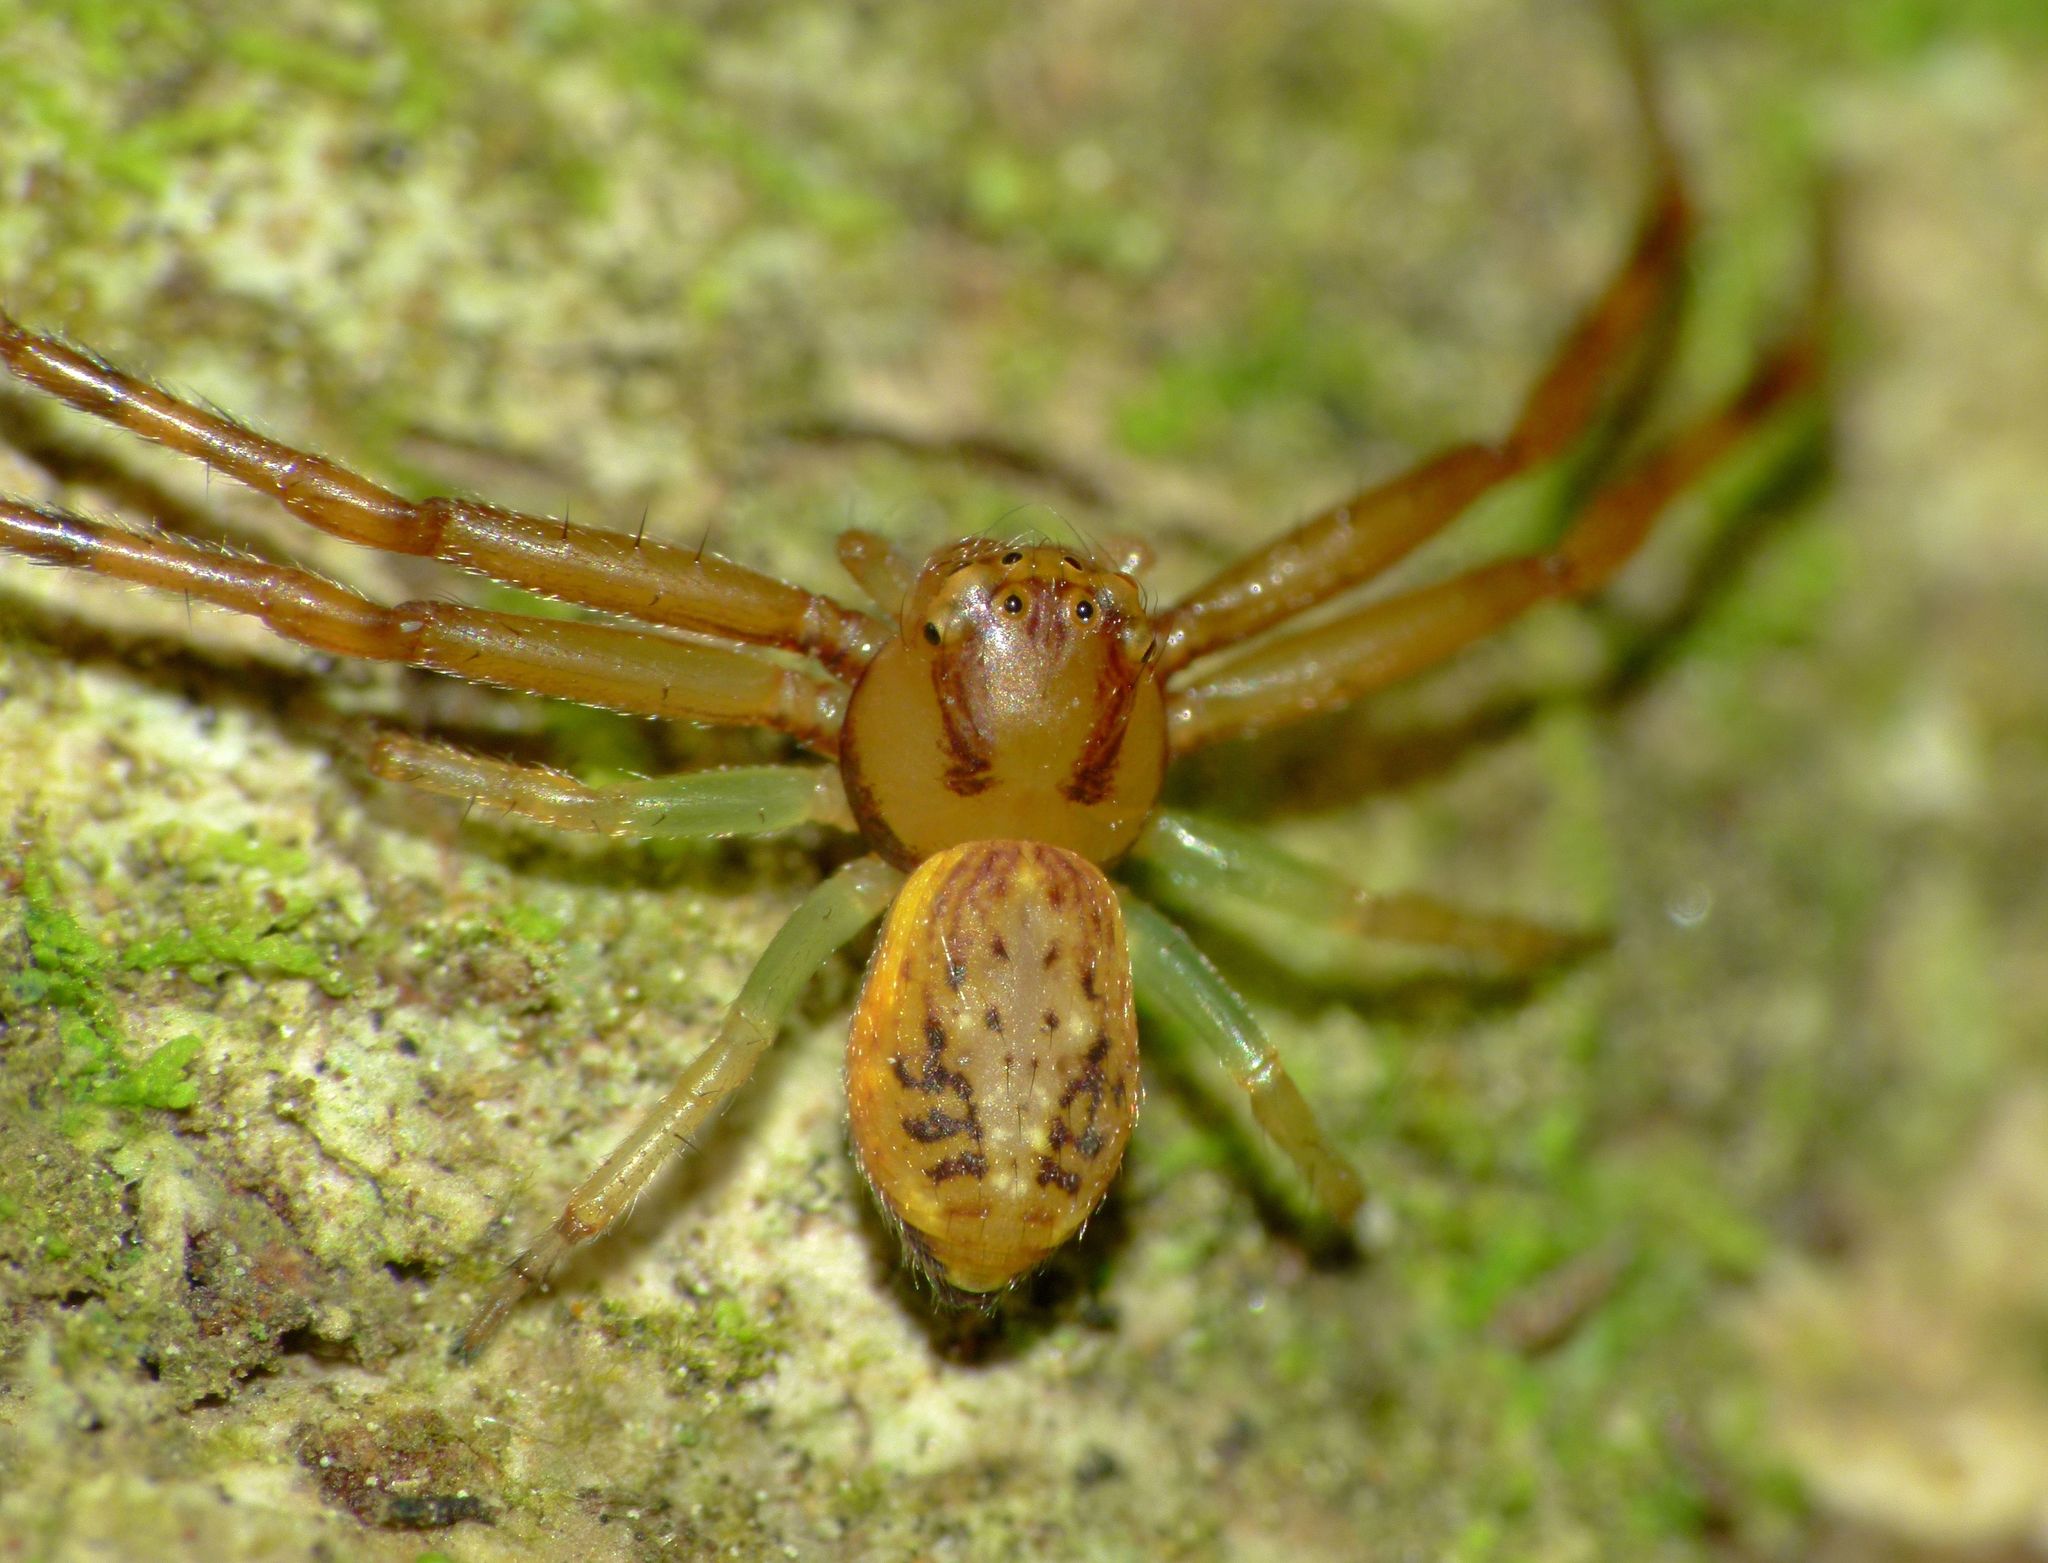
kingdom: Animalia
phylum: Arthropoda
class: Arachnida
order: Araneae
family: Thomisidae
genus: Diaea
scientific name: Diaea ambara
